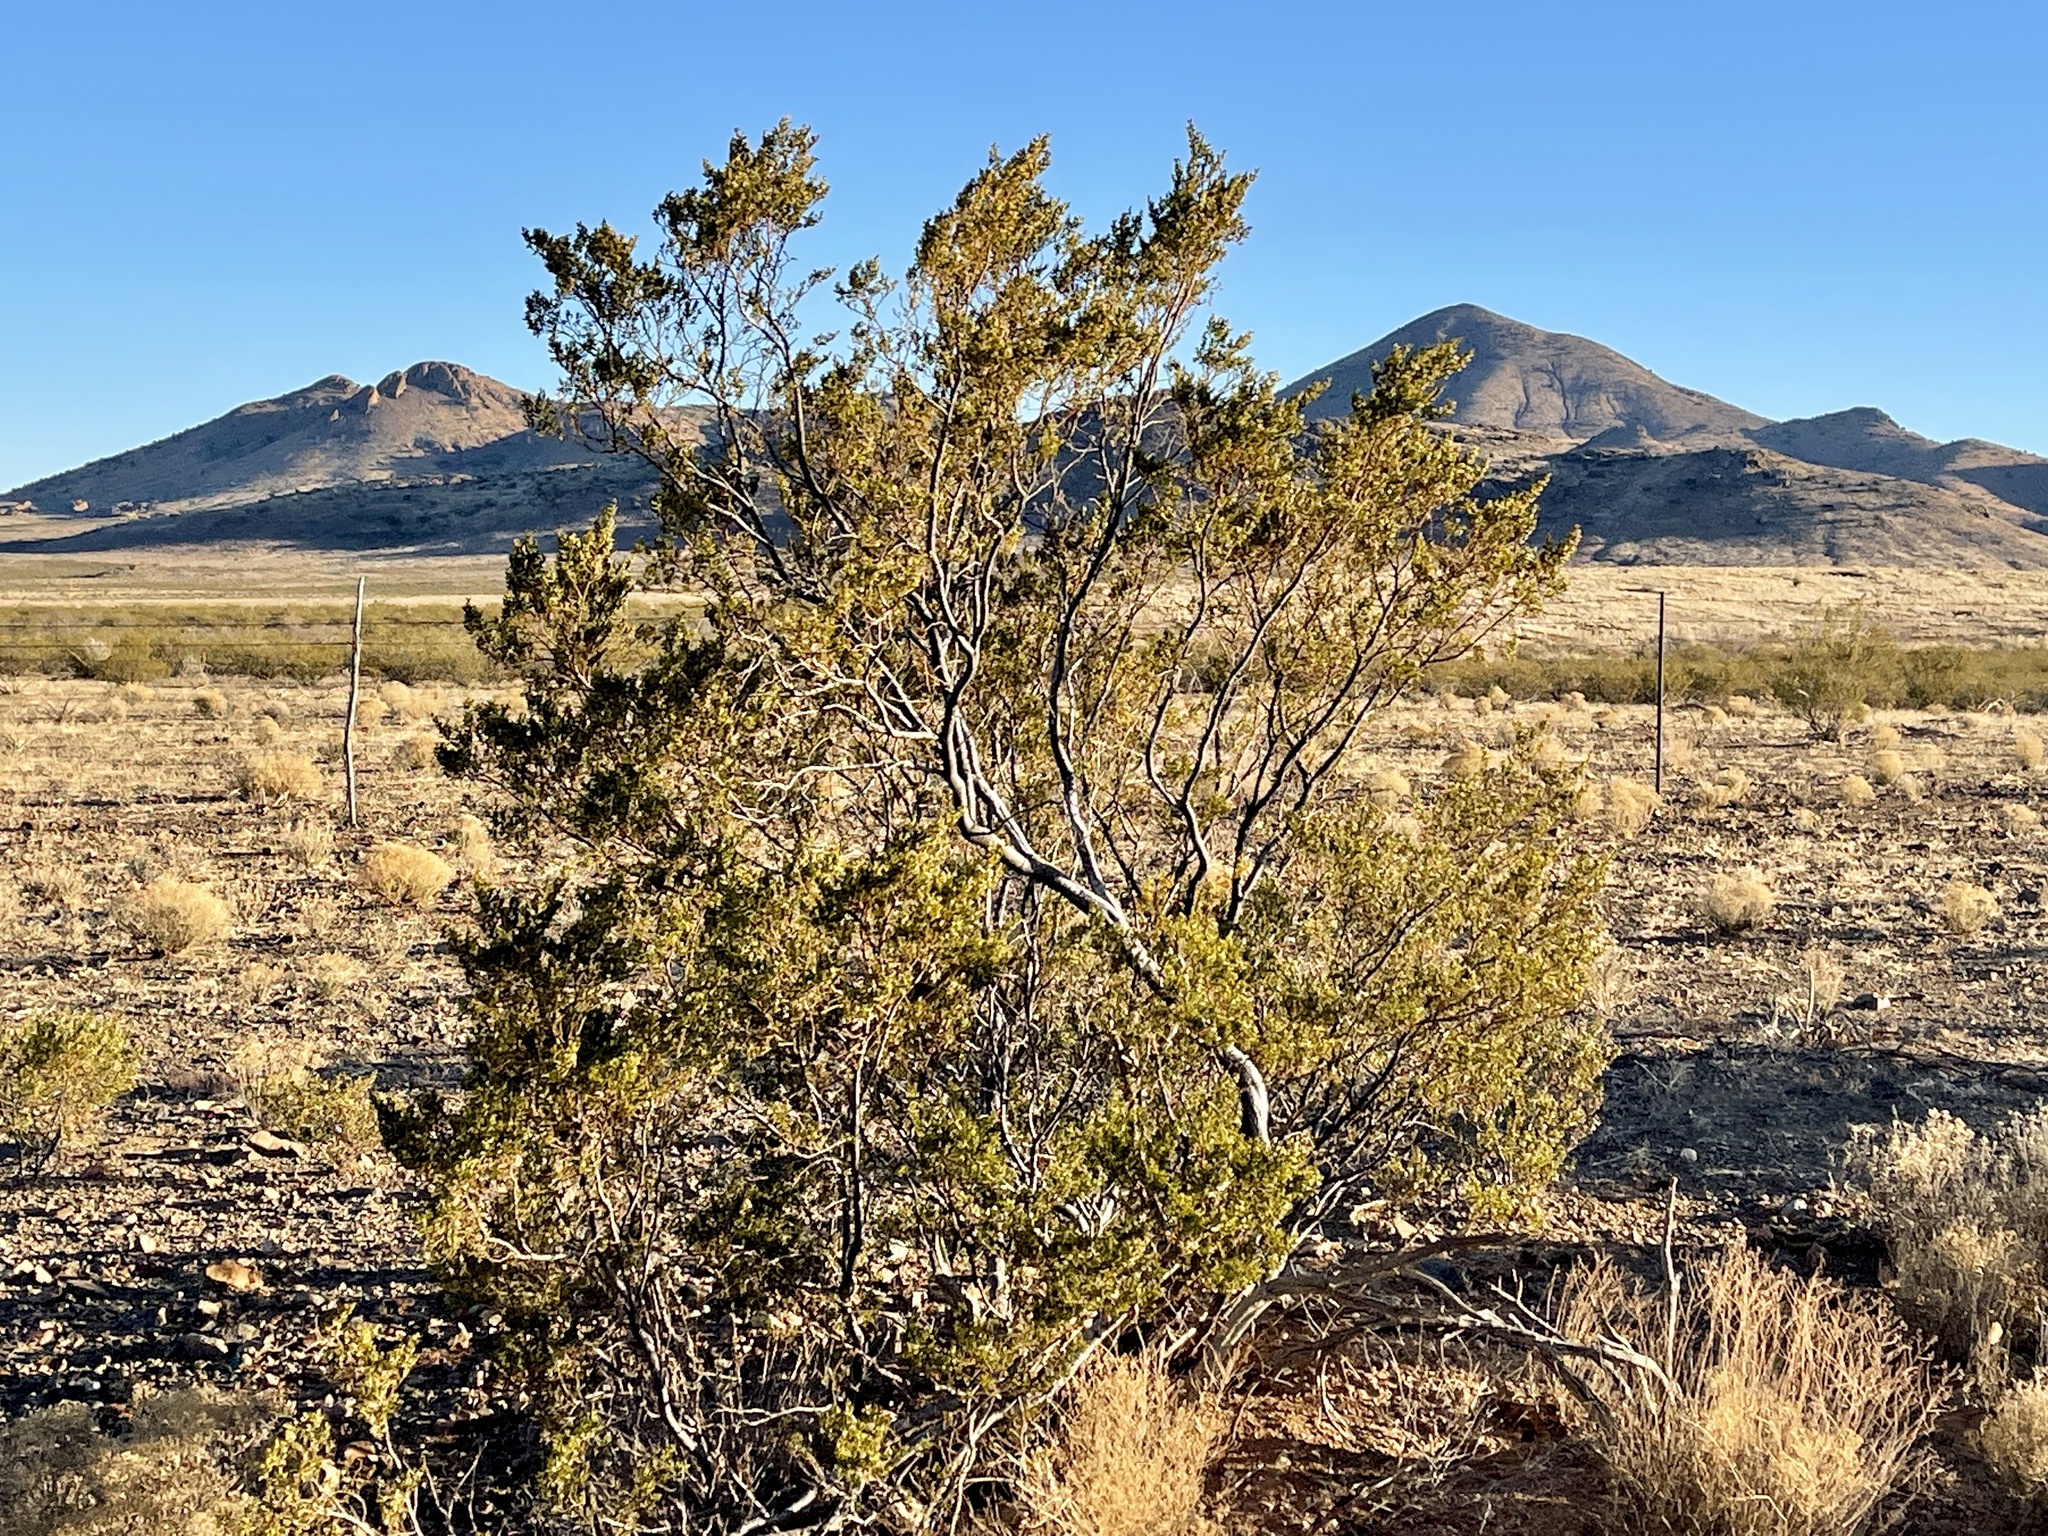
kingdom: Plantae
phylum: Tracheophyta
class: Magnoliopsida
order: Zygophyllales
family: Zygophyllaceae
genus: Larrea
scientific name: Larrea tridentata
